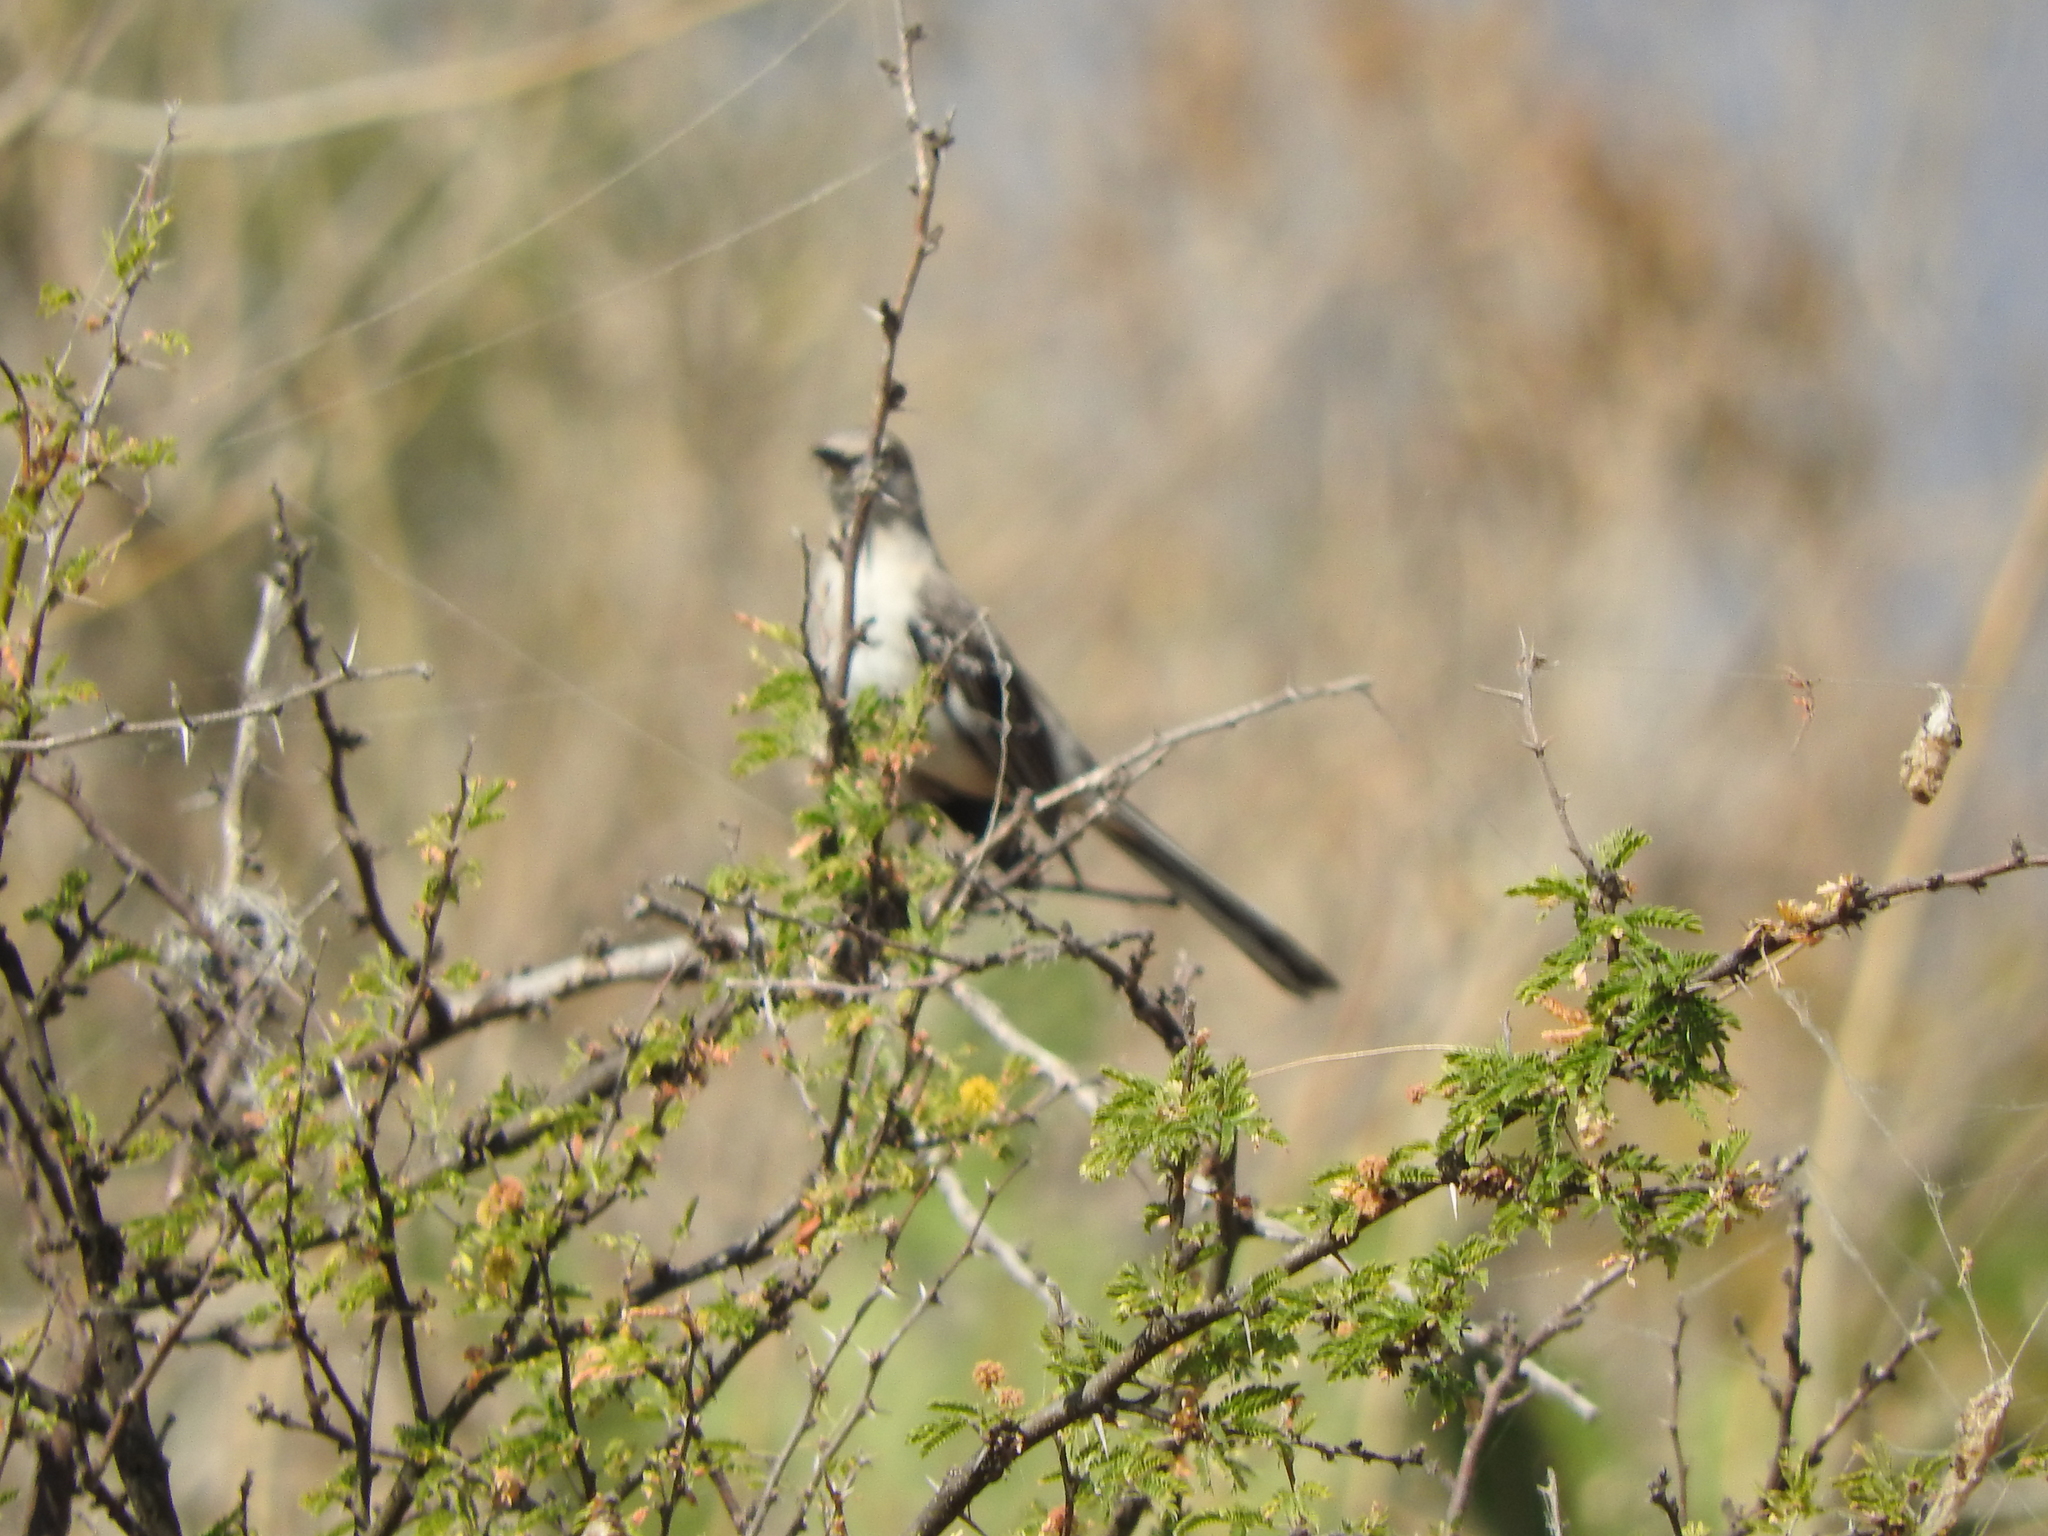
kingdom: Animalia
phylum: Chordata
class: Aves
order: Passeriformes
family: Mimidae
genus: Mimus
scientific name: Mimus polyglottos
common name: Northern mockingbird
